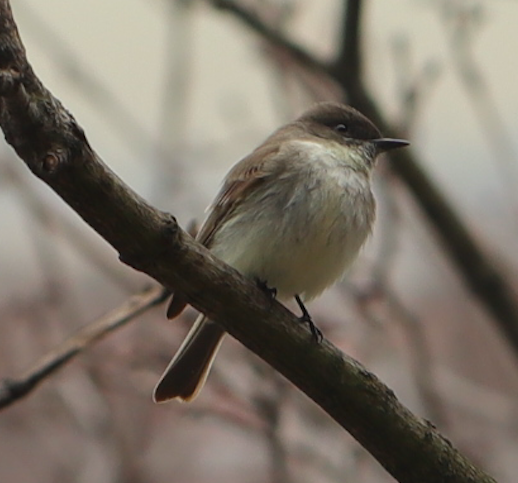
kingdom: Animalia
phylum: Chordata
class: Aves
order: Passeriformes
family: Tyrannidae
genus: Sayornis
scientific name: Sayornis phoebe
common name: Eastern phoebe
